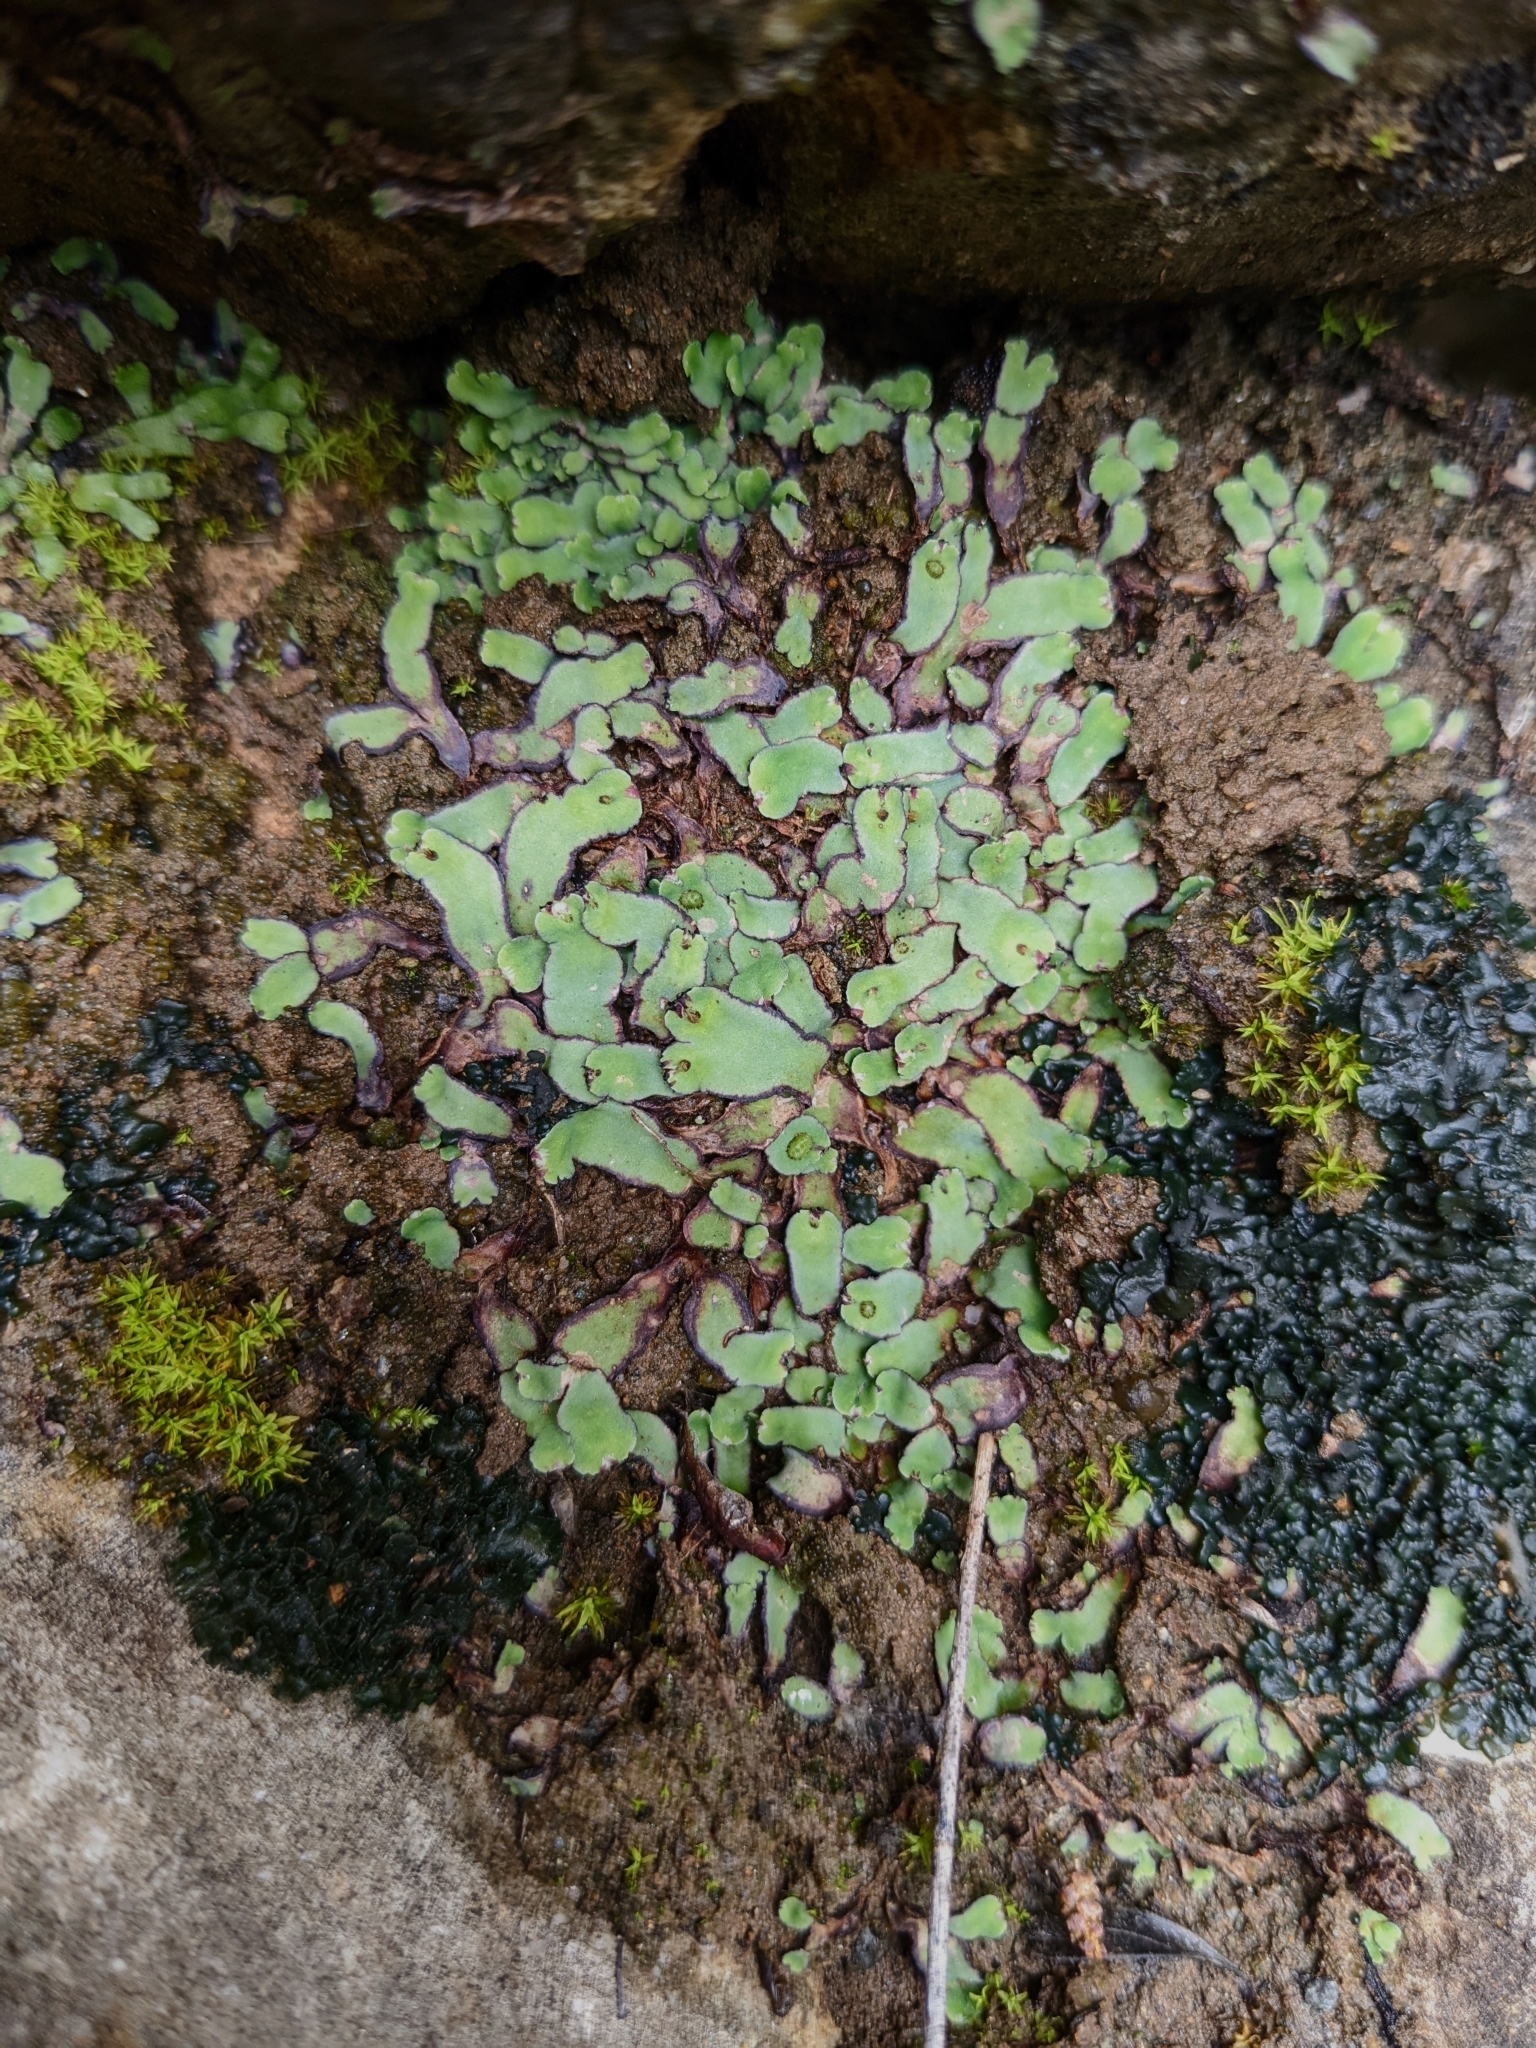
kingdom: Plantae
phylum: Marchantiophyta
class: Marchantiopsida
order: Marchantiales
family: Aytoniaceae
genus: Plagiochasma
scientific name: Plagiochasma rupestre
